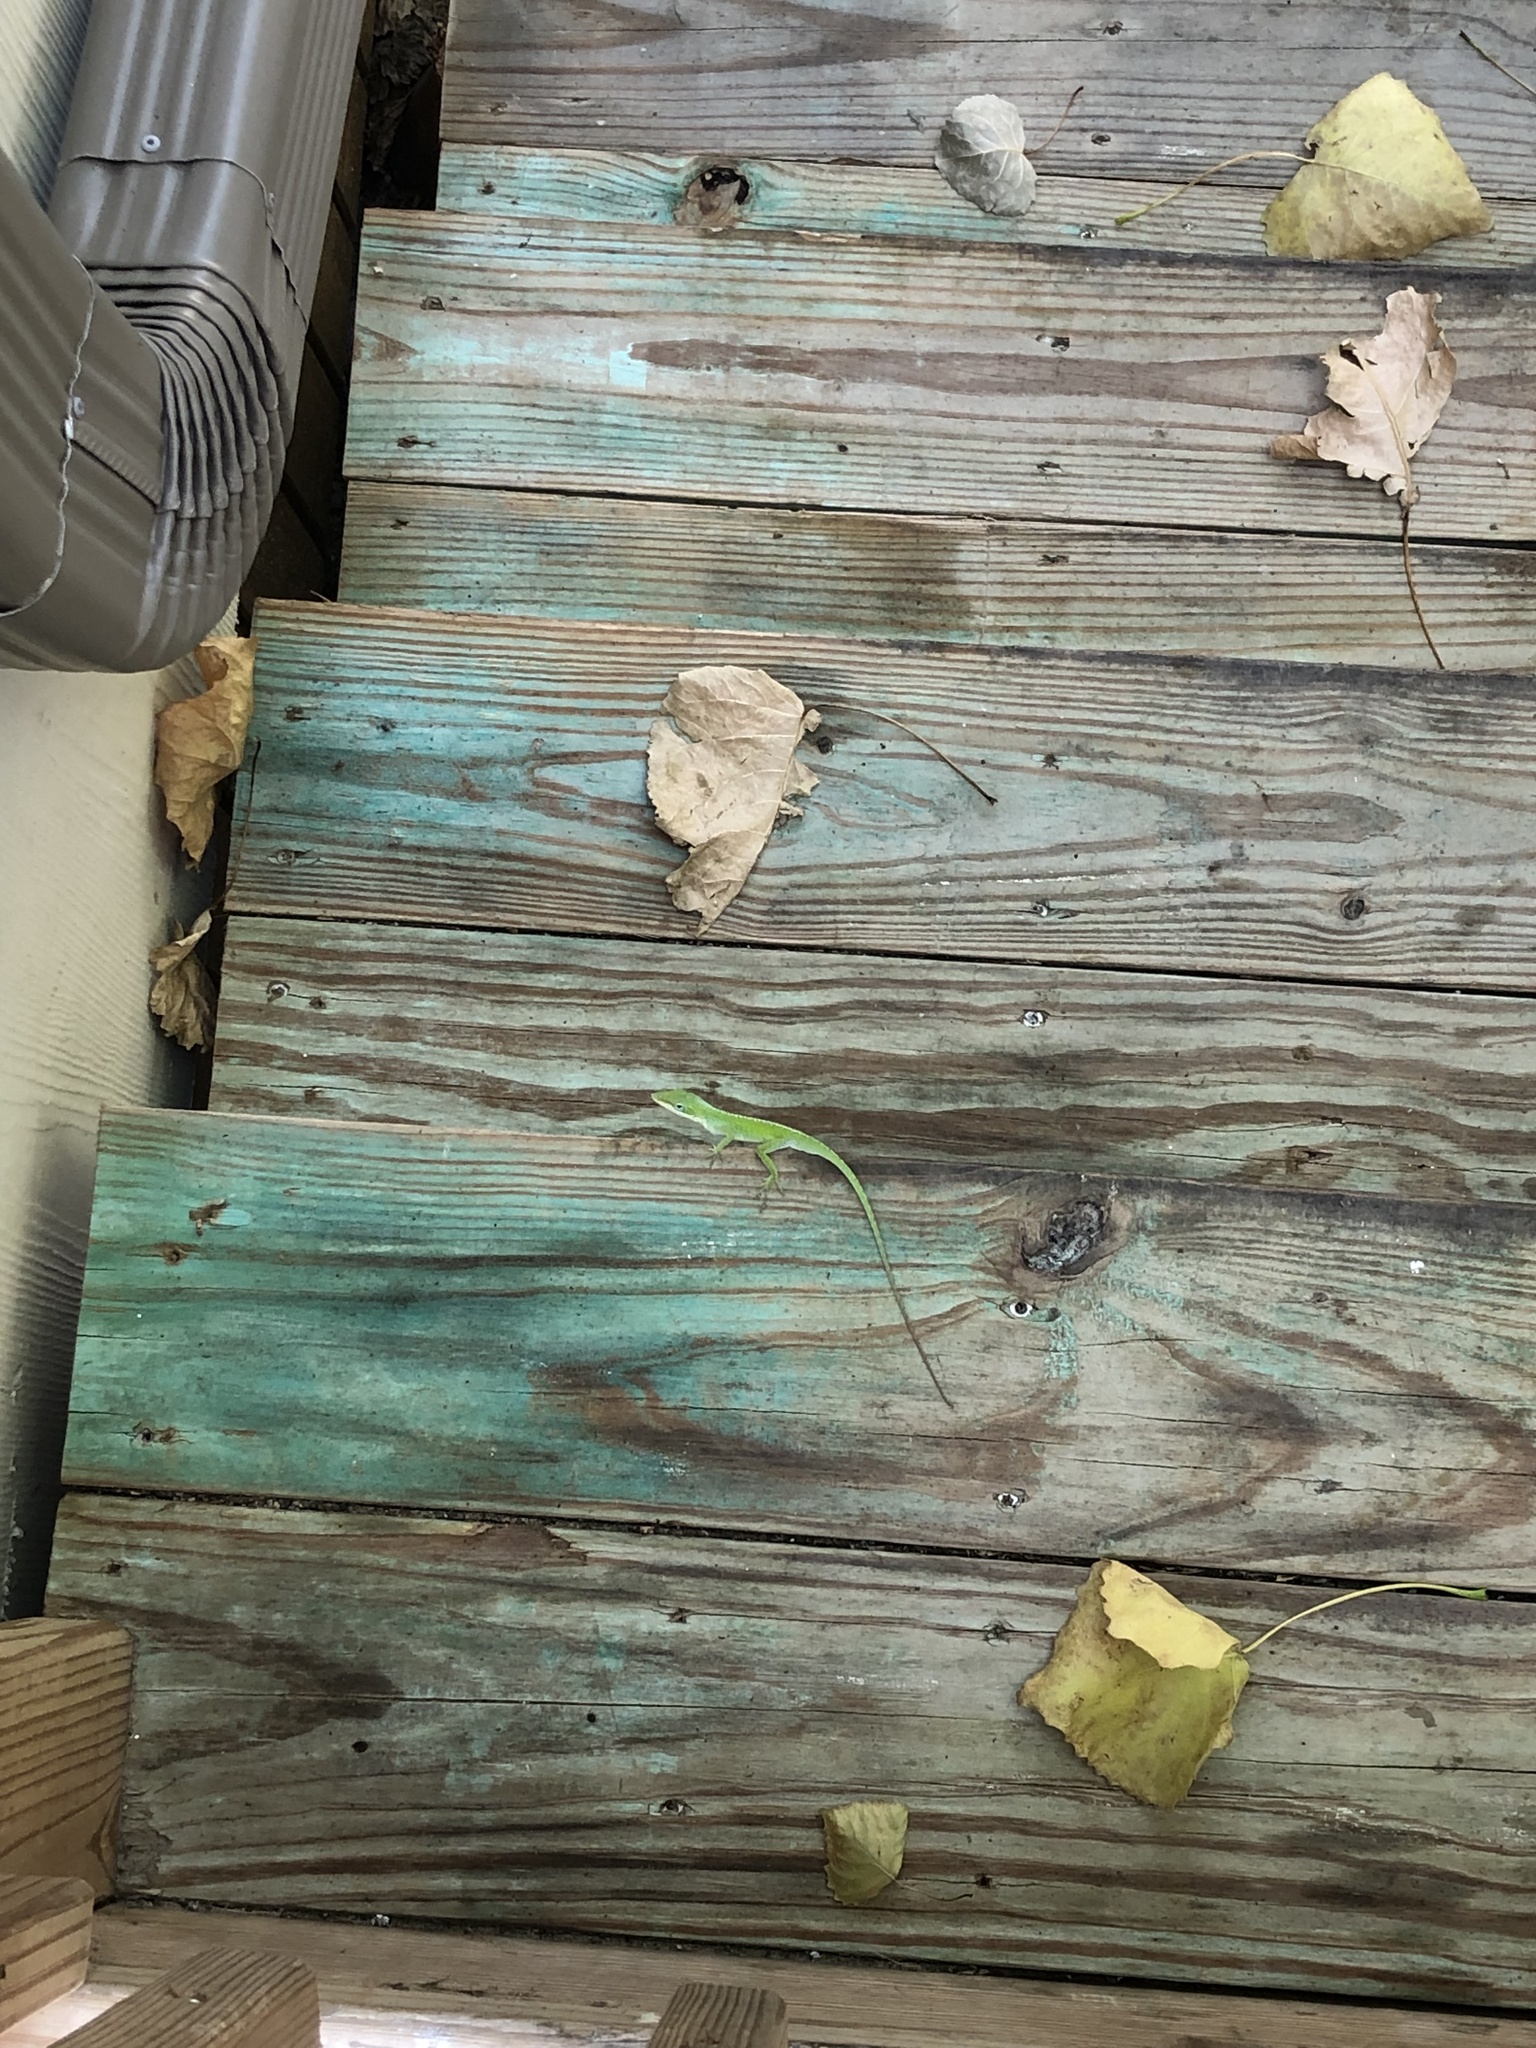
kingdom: Animalia
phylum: Chordata
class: Squamata
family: Dactyloidae
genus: Anolis
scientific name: Anolis carolinensis
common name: Green anole
